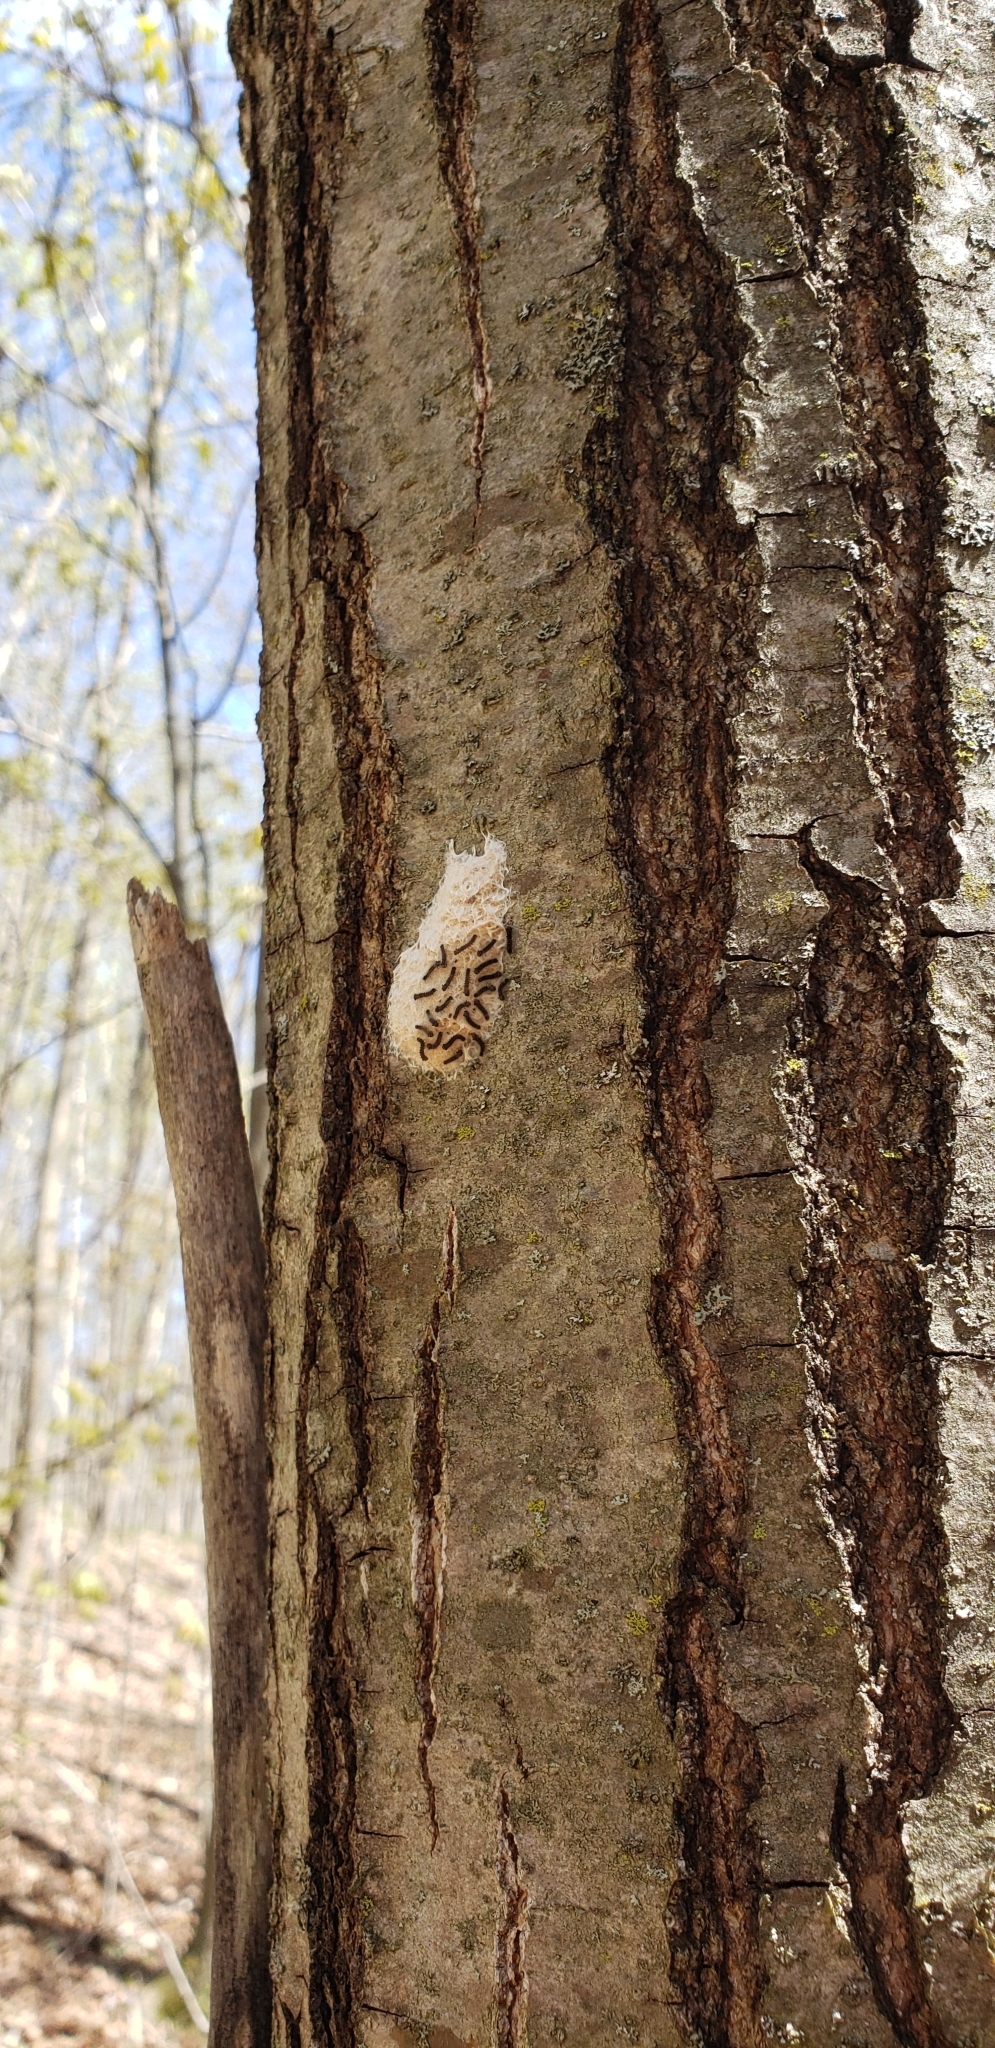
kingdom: Animalia
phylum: Arthropoda
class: Insecta
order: Lepidoptera
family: Erebidae
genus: Lymantria
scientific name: Lymantria dispar
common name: Gypsy moth
